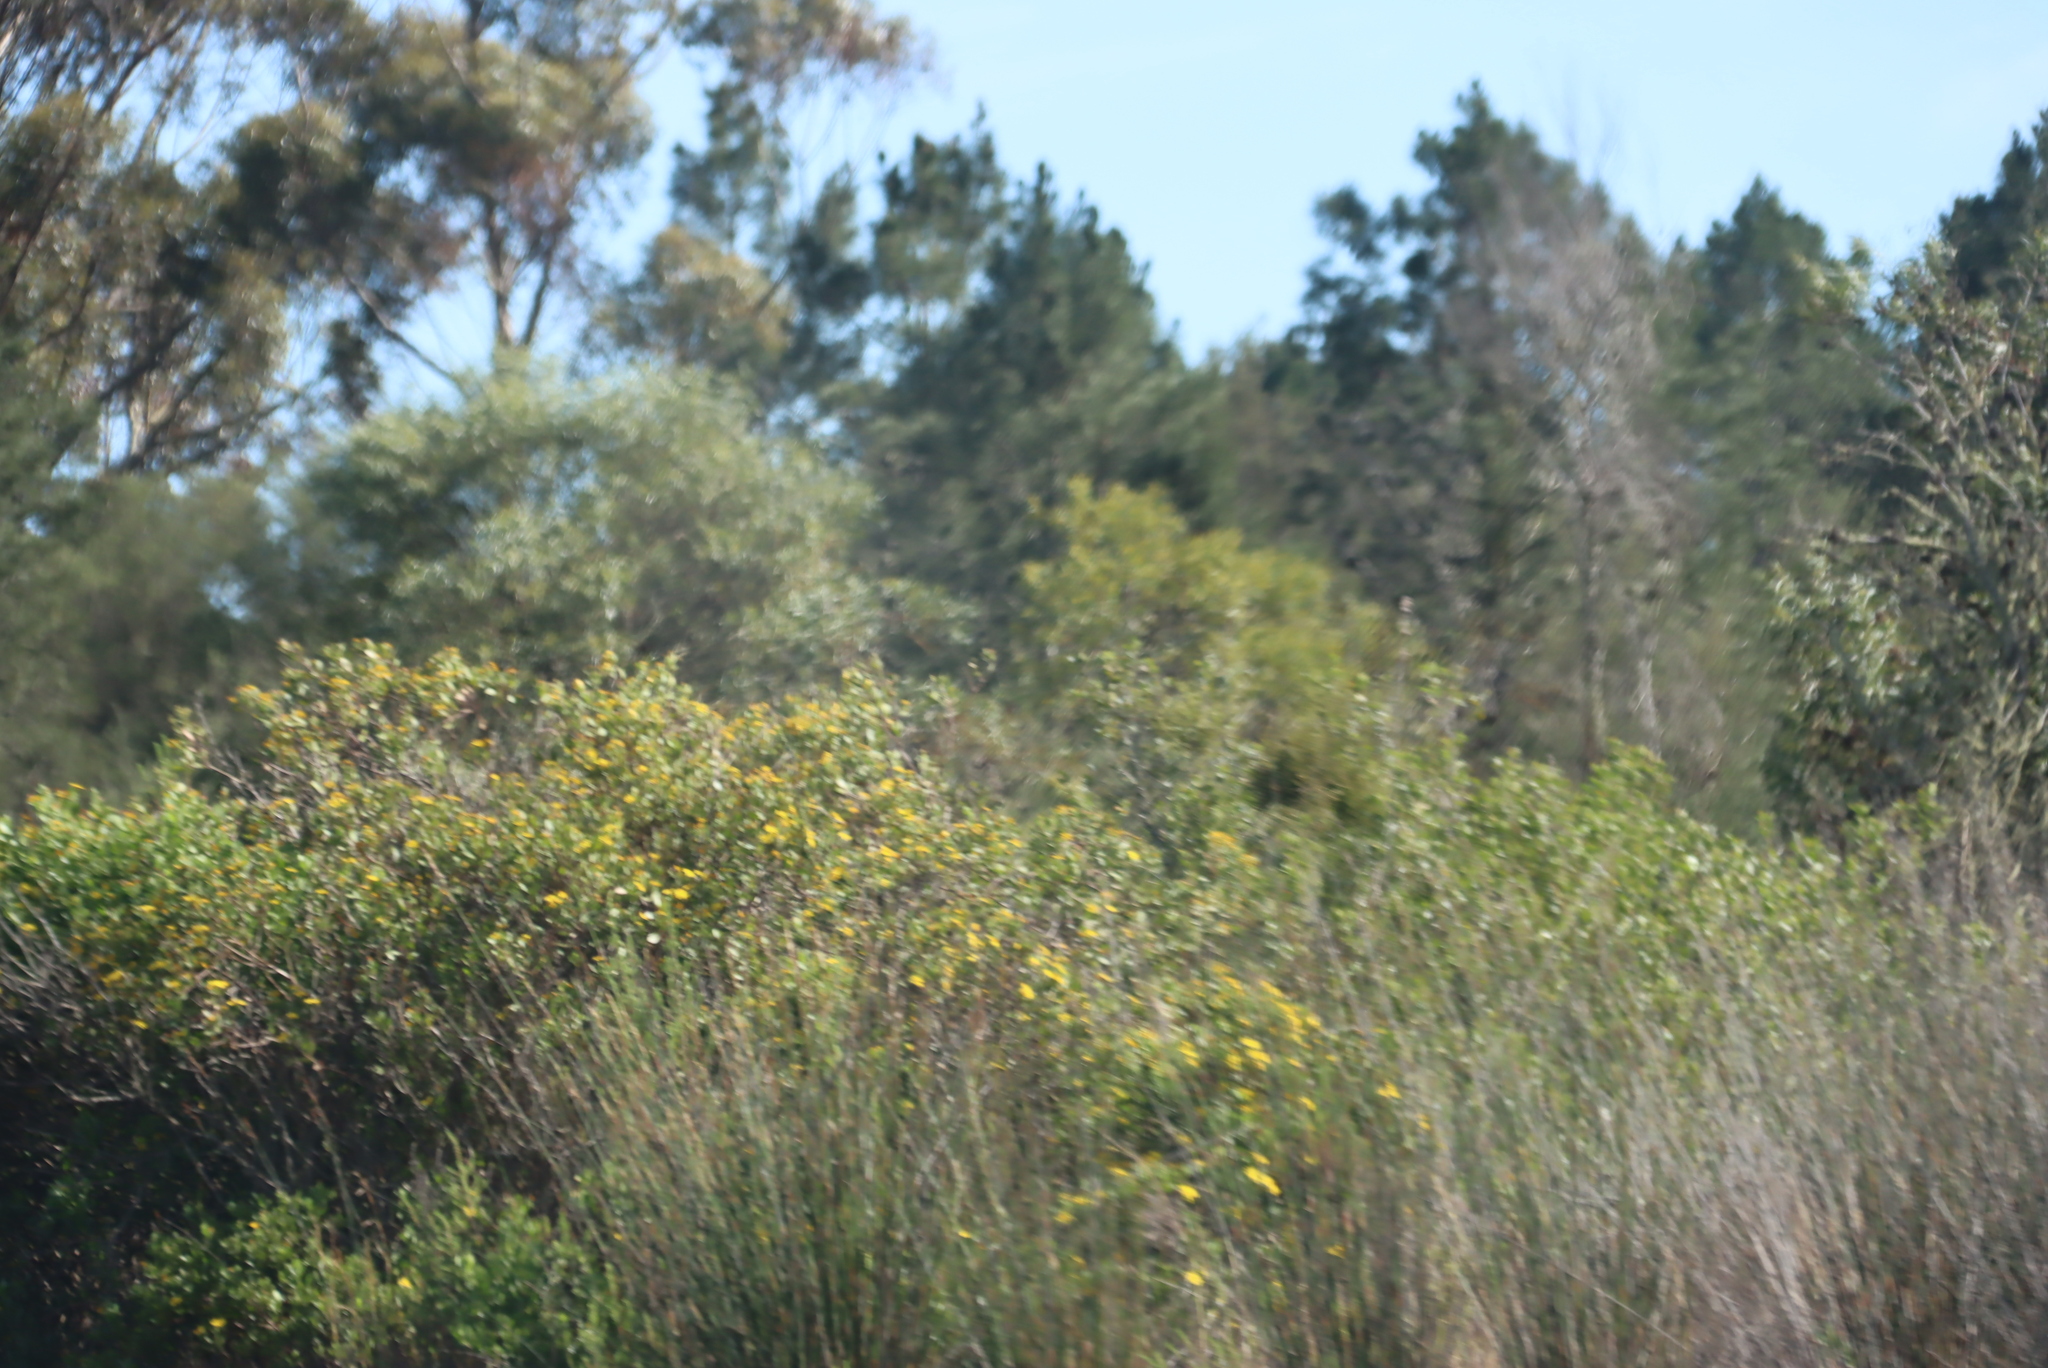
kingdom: Plantae
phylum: Tracheophyta
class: Magnoliopsida
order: Asterales
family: Asteraceae
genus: Osteospermum
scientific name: Osteospermum moniliferum
